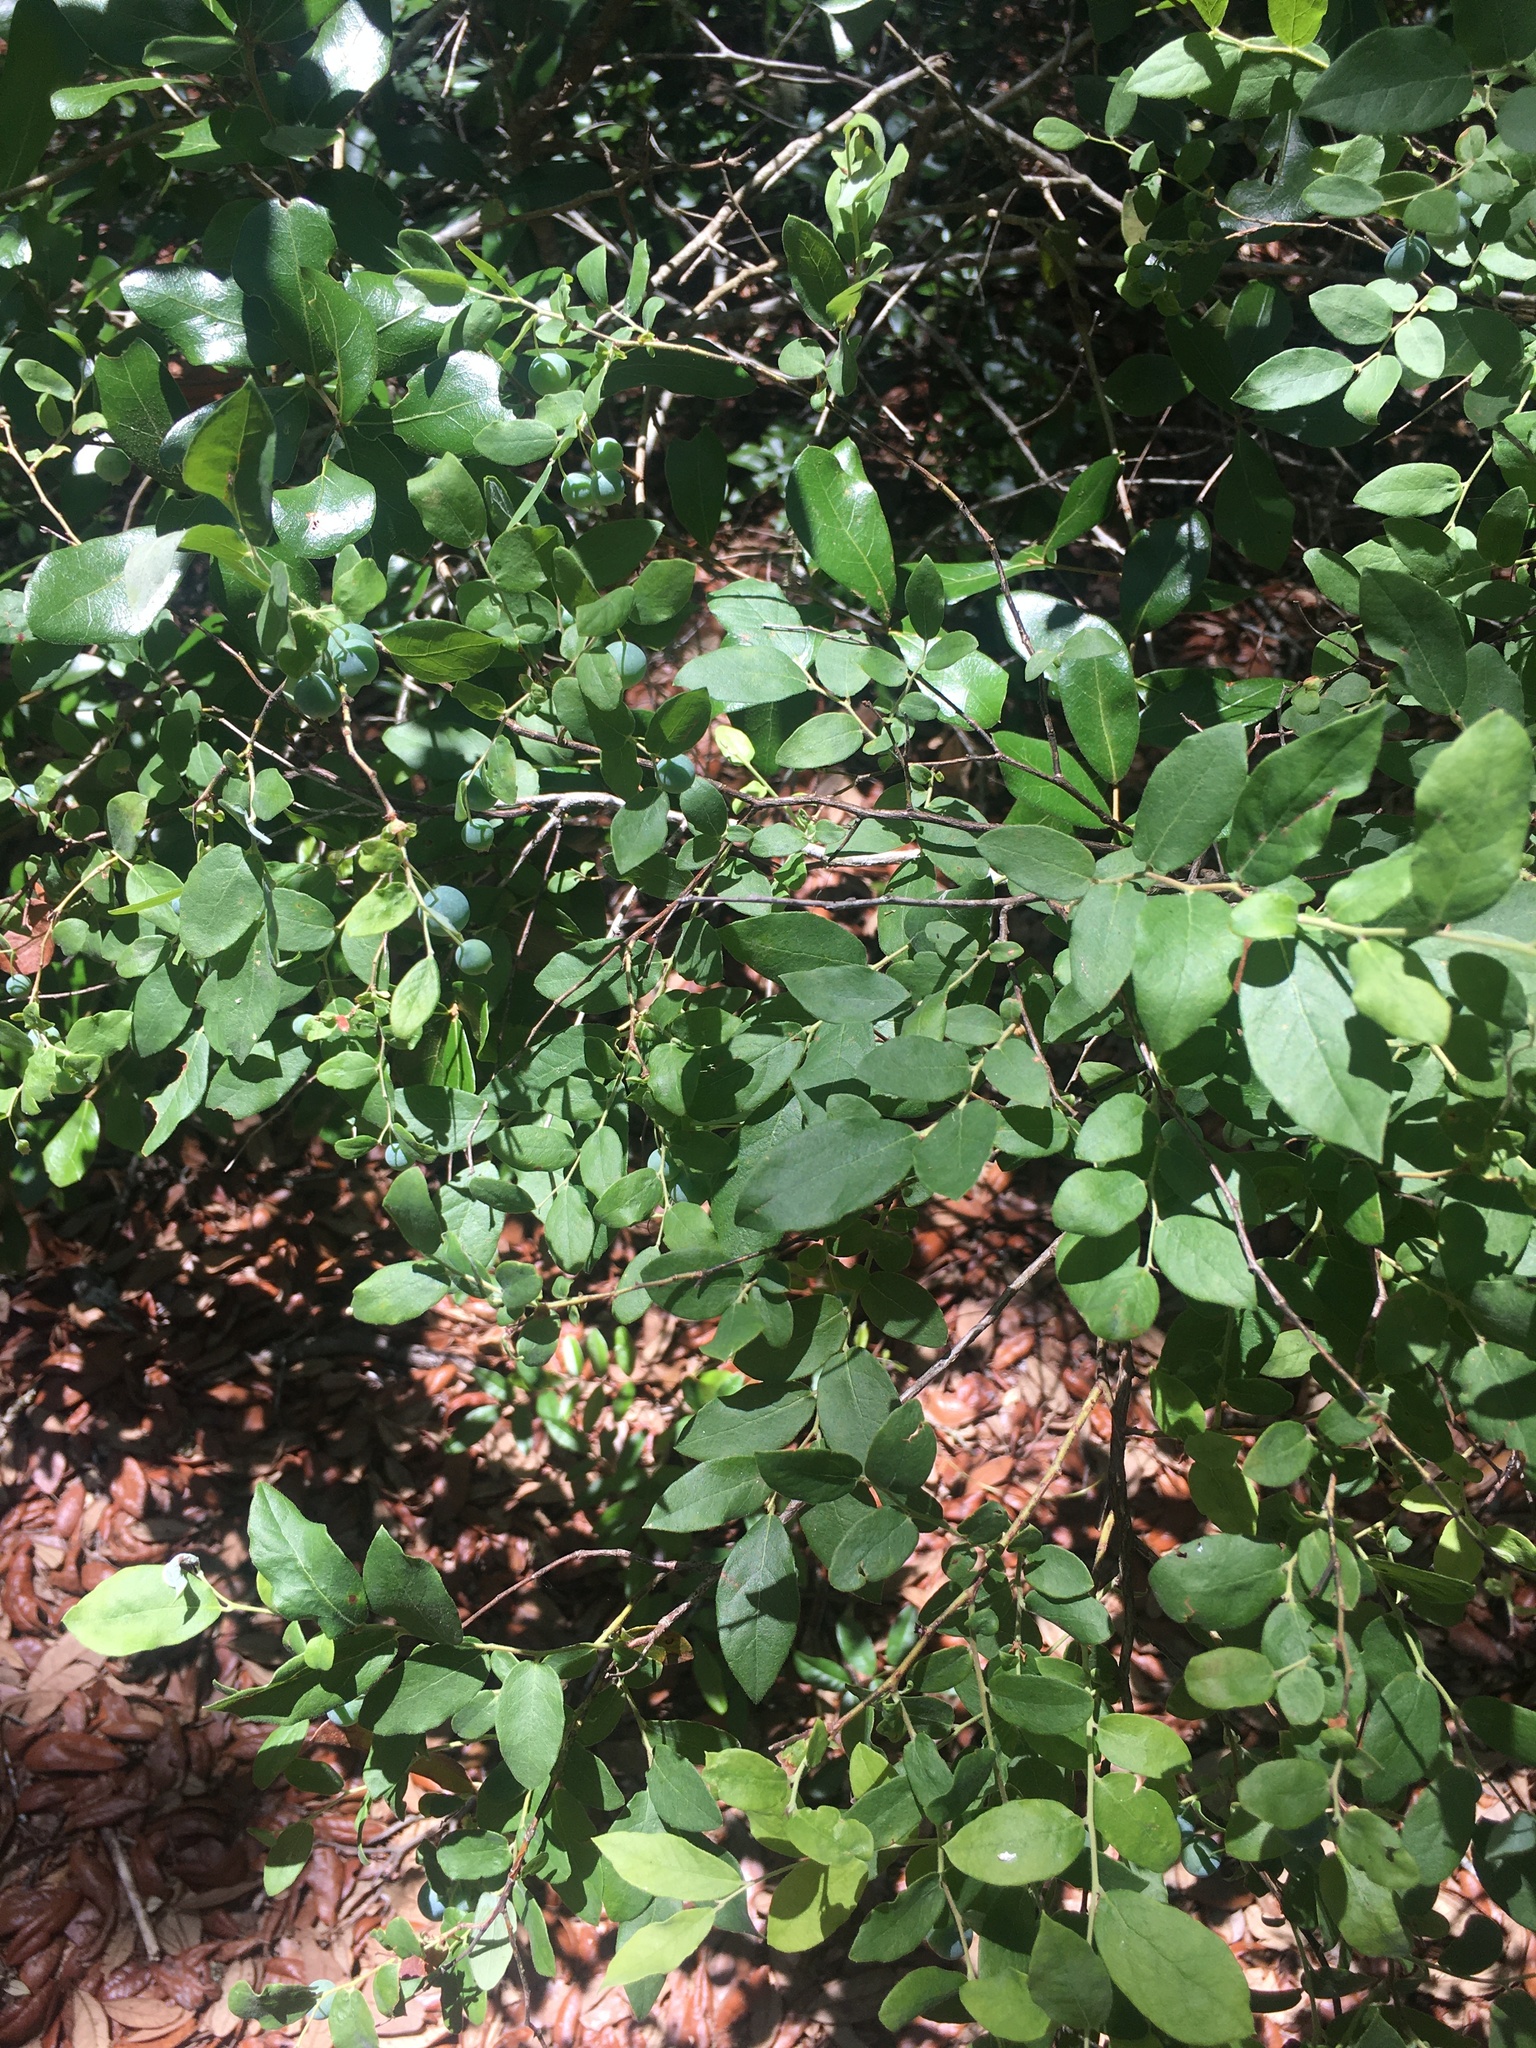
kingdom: Plantae
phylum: Tracheophyta
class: Magnoliopsida
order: Ericales
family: Ericaceae
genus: Vaccinium
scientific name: Vaccinium stamineum
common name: Deerberry
